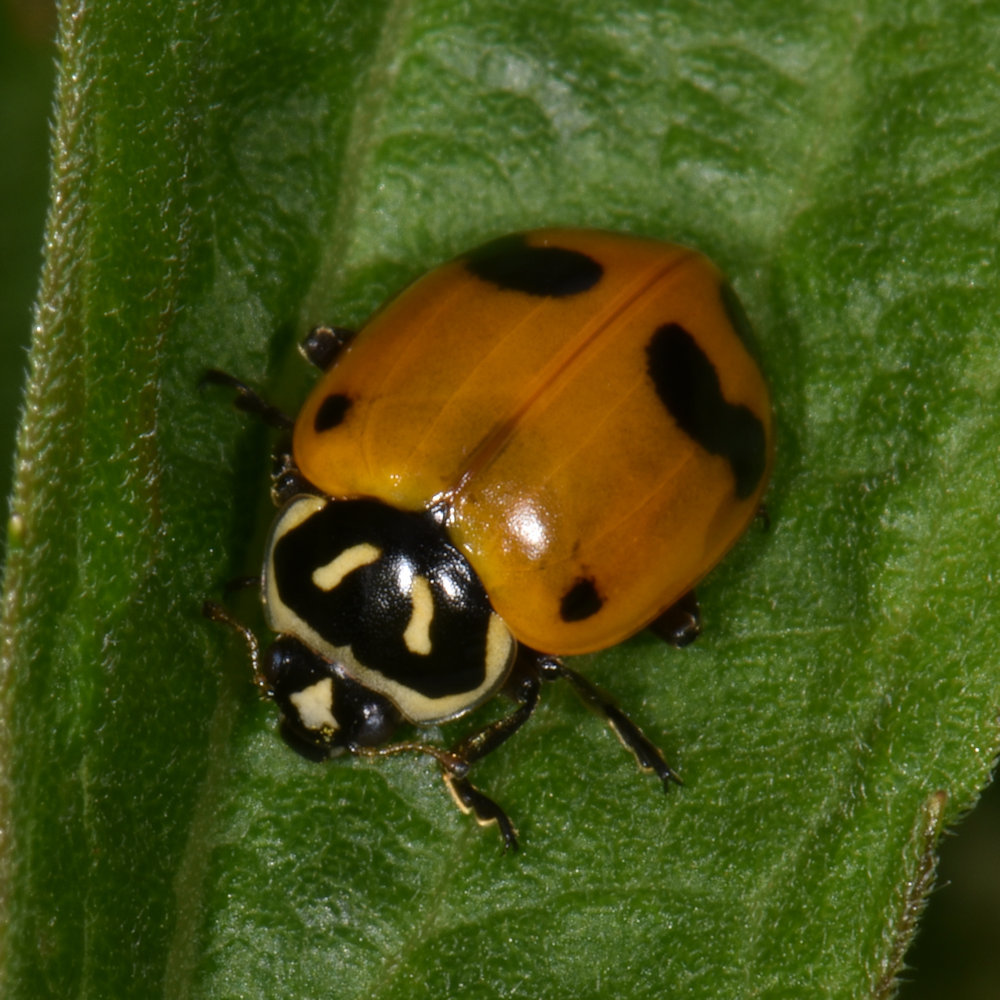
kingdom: Animalia
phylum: Arthropoda
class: Insecta
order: Coleoptera
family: Coccinellidae
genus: Hippodamia
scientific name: Hippodamia glacialis
